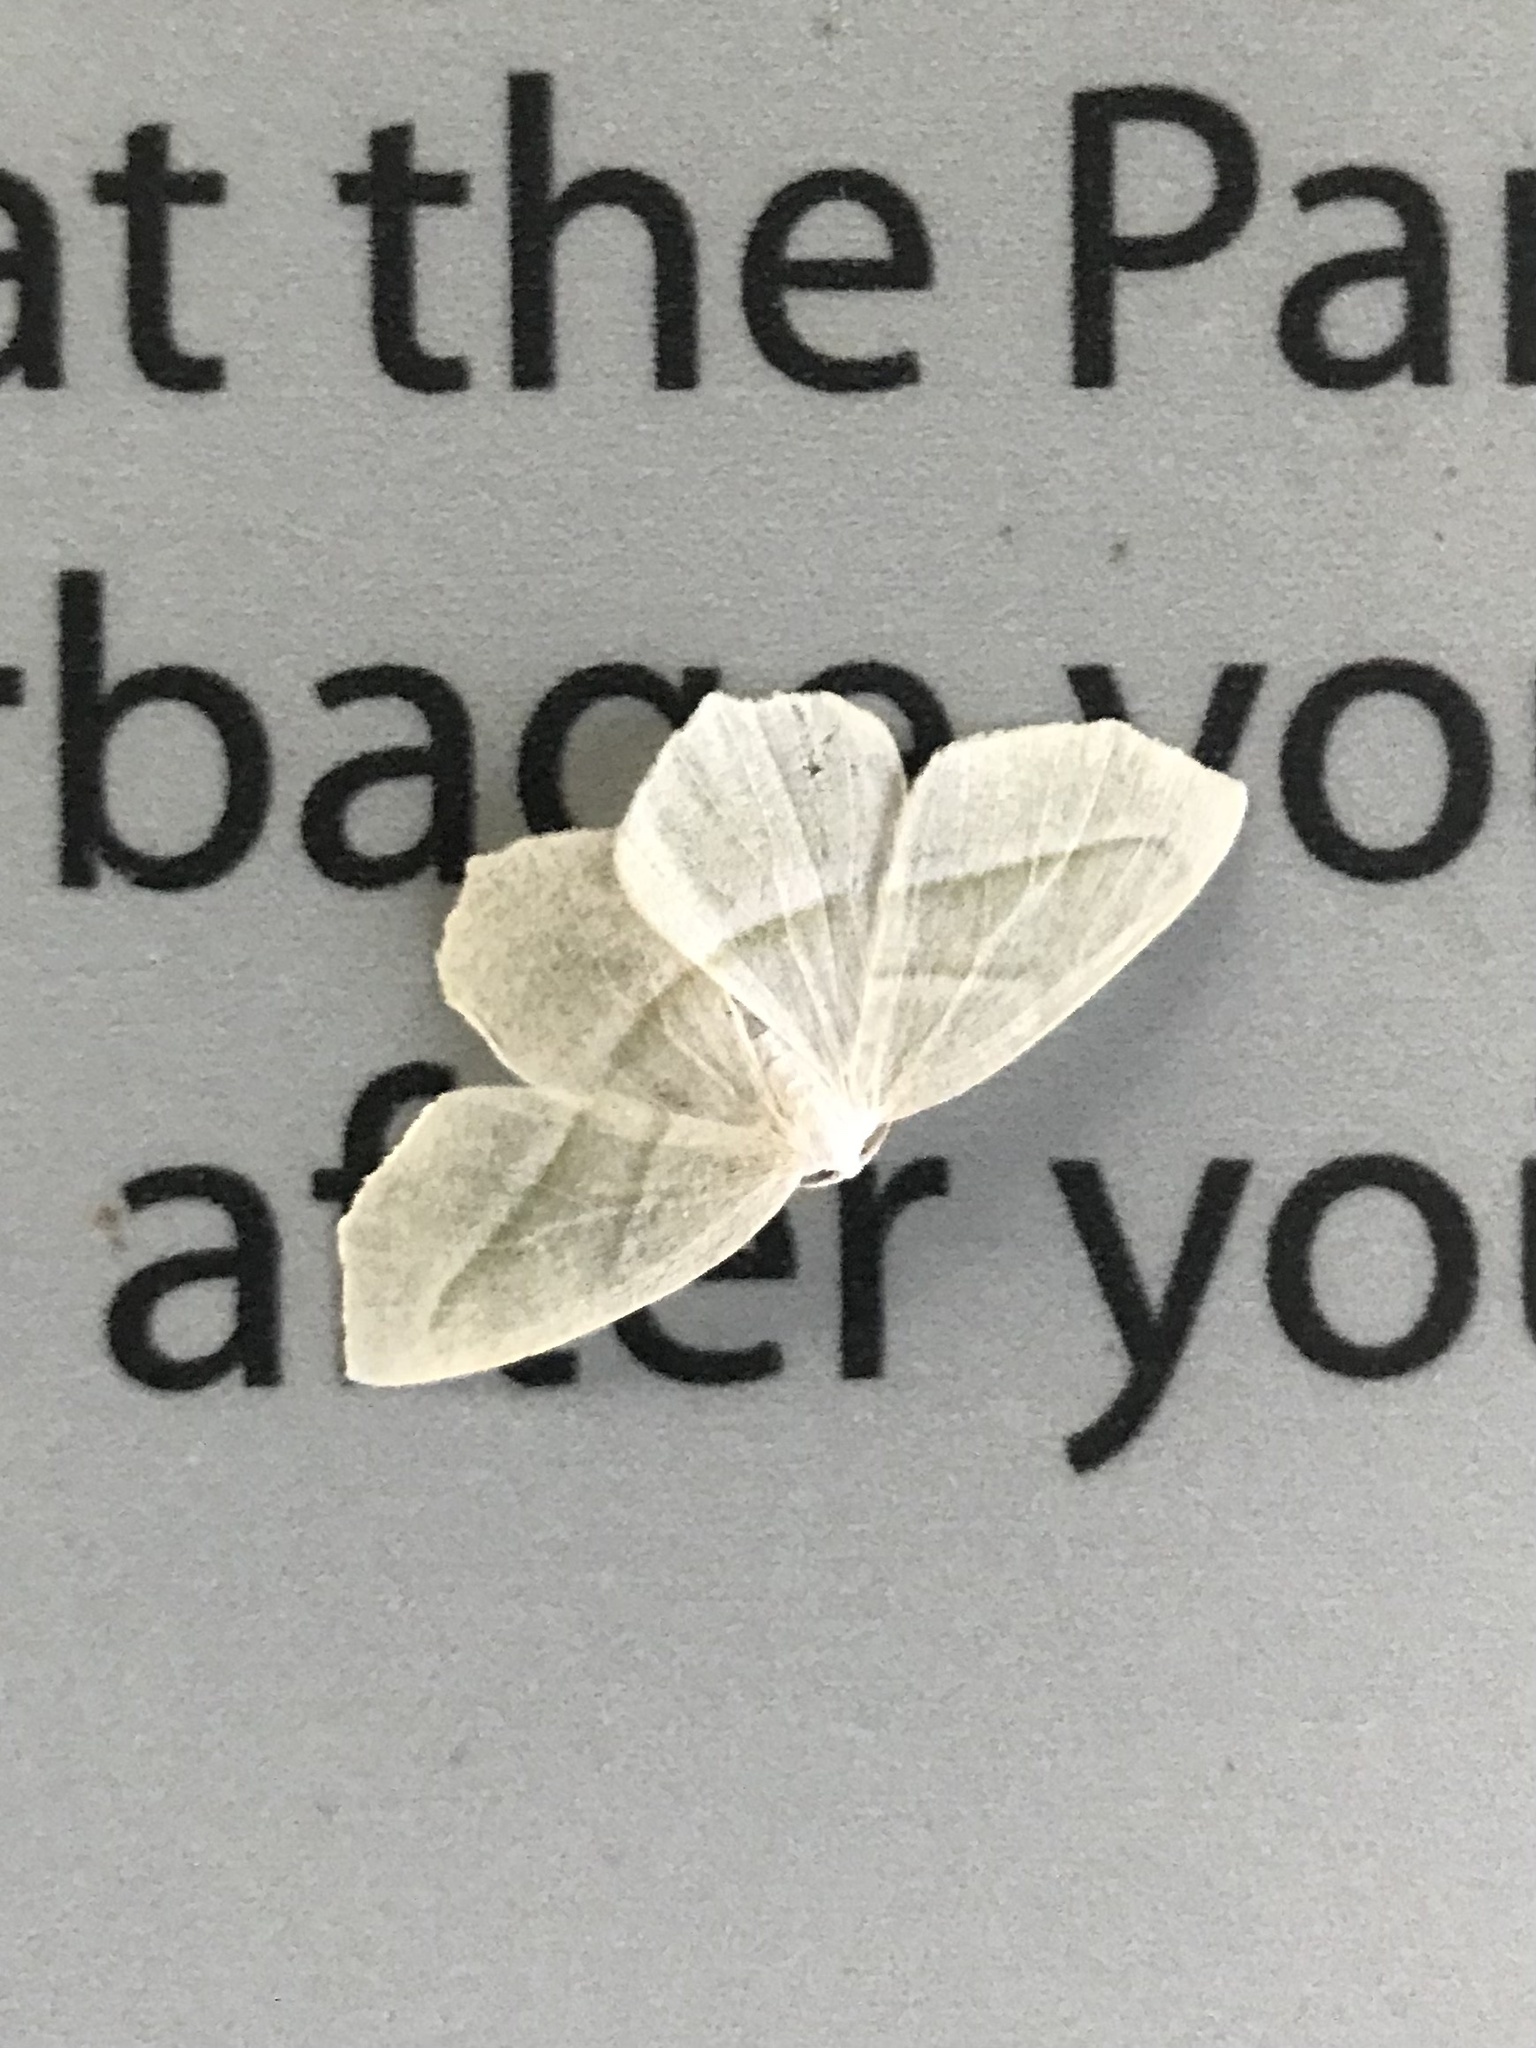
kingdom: Animalia
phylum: Arthropoda
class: Insecta
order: Lepidoptera
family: Geometridae
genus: Campaea
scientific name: Campaea perlata
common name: Fringed looper
